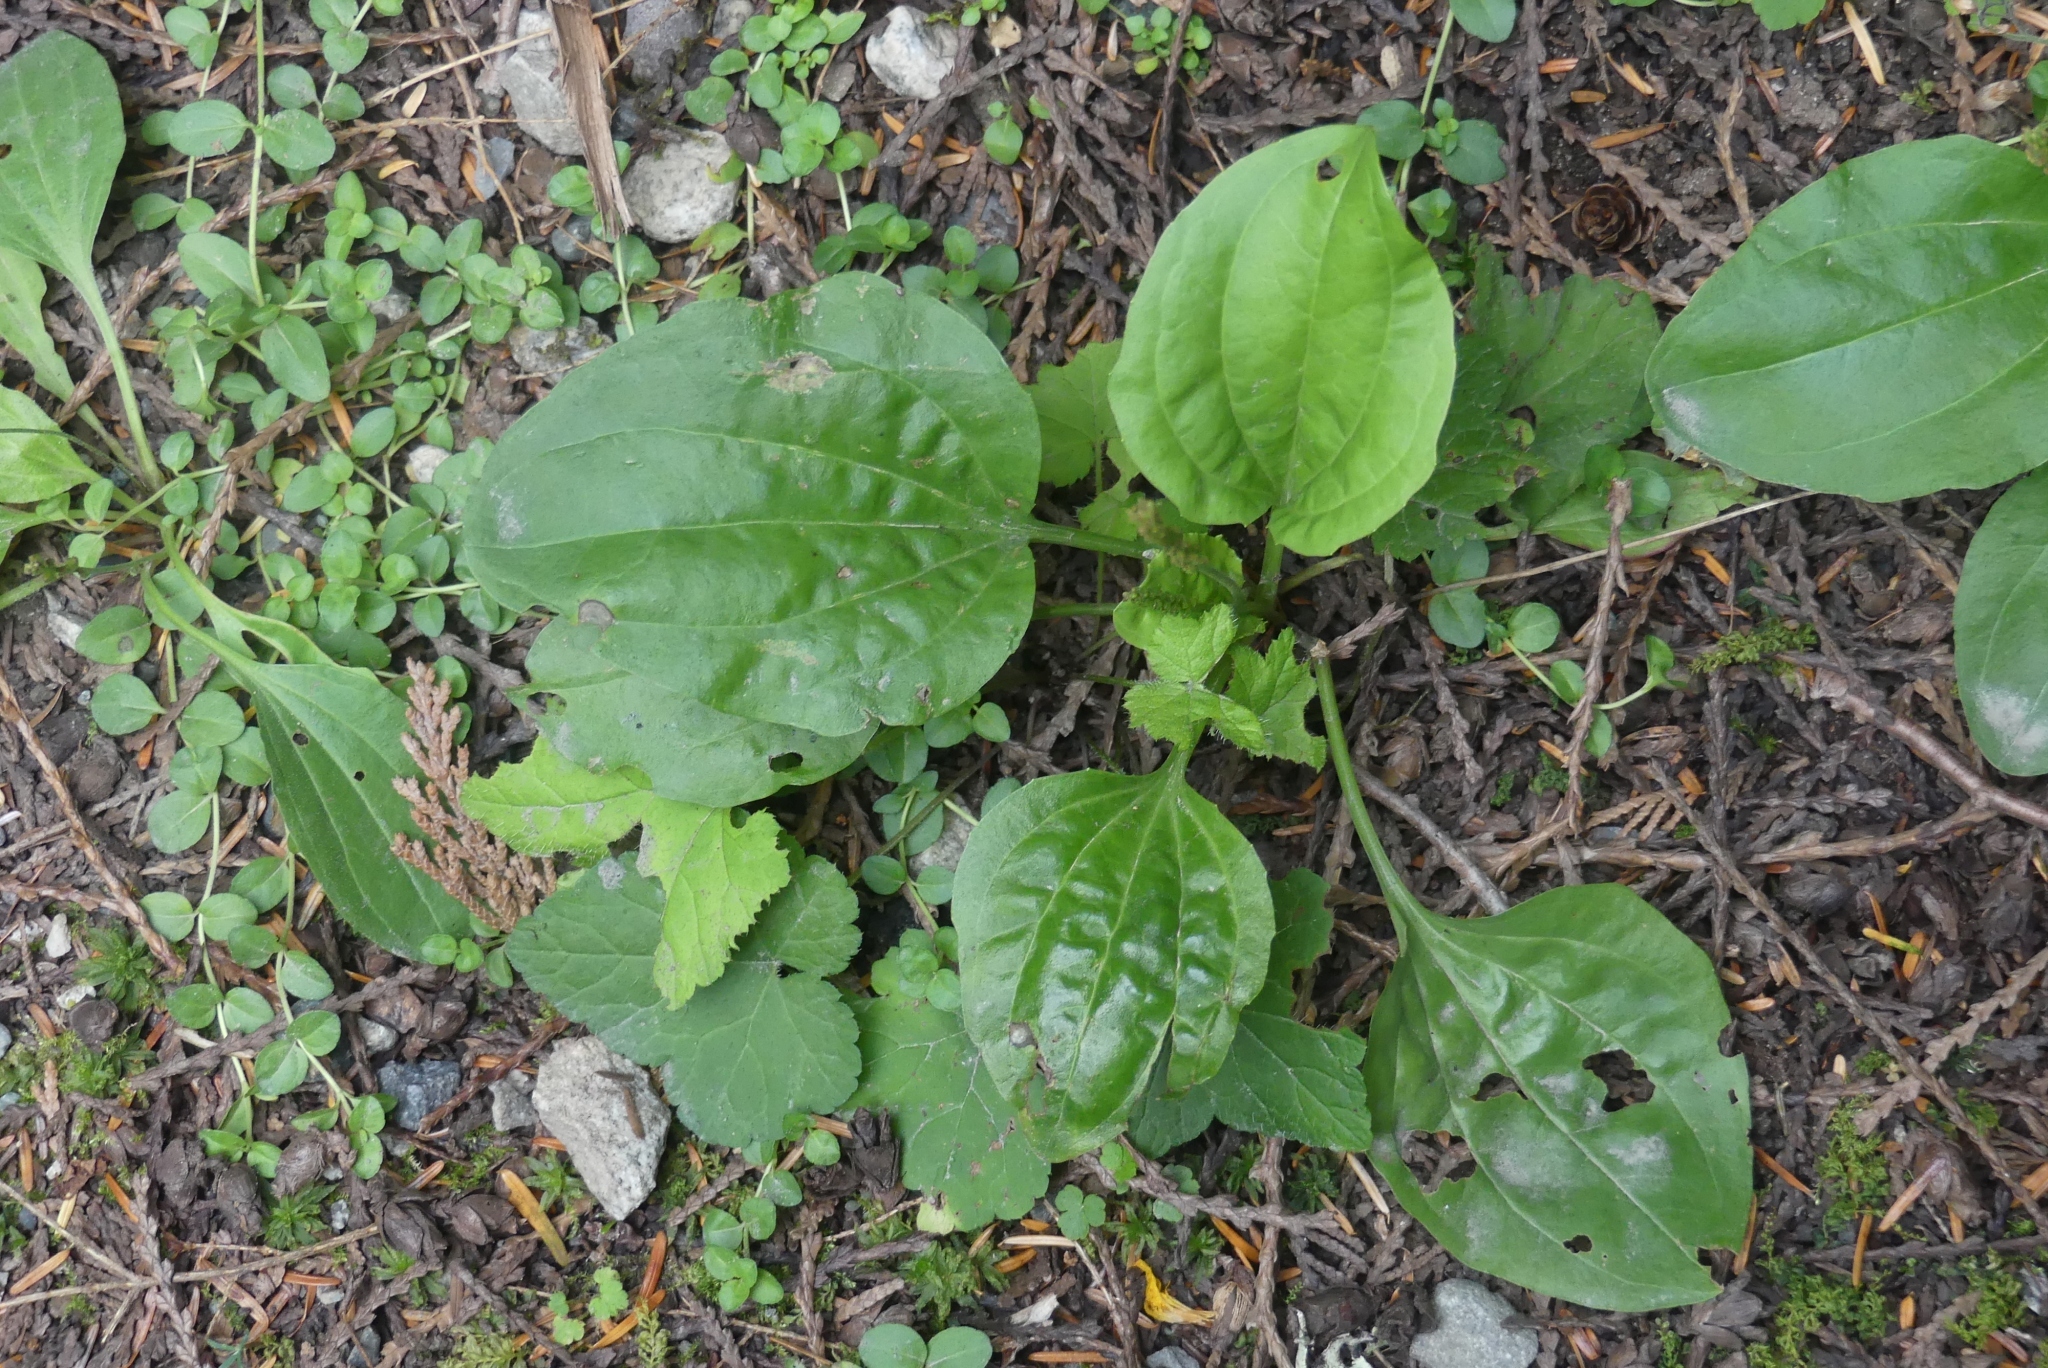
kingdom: Plantae
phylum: Tracheophyta
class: Magnoliopsida
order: Lamiales
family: Plantaginaceae
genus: Plantago
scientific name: Plantago major
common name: Common plantain
